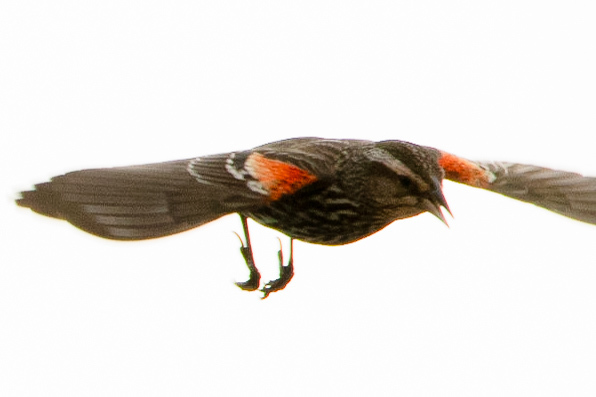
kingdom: Animalia
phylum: Chordata
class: Aves
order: Passeriformes
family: Icteridae
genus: Agelaius
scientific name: Agelaius phoeniceus
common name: Red-winged blackbird
